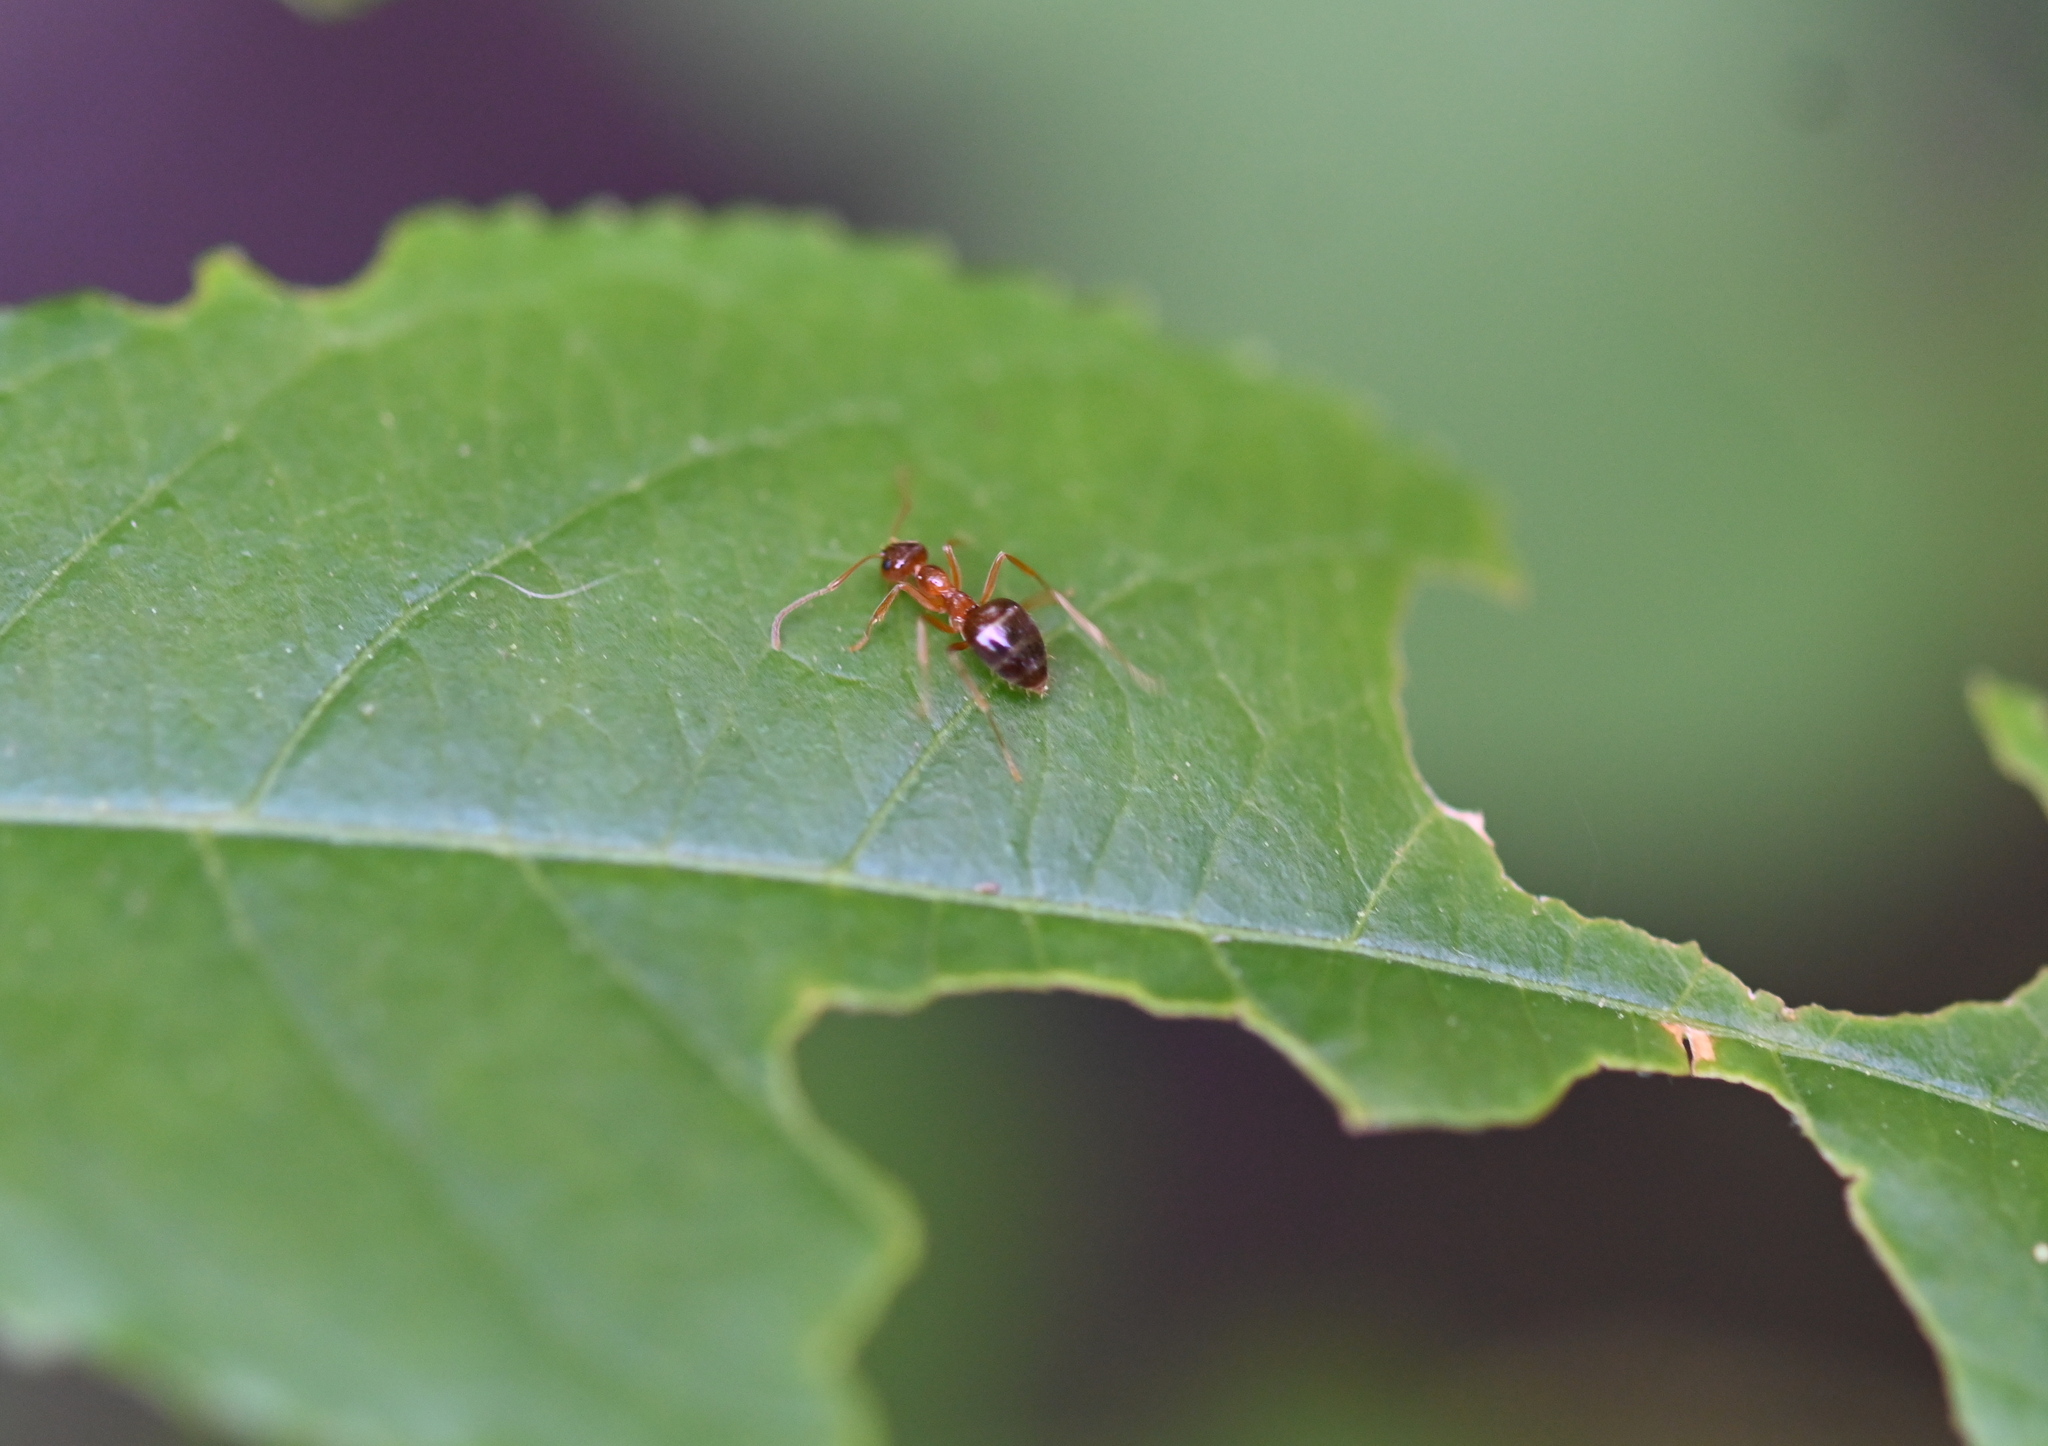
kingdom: Animalia
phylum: Arthropoda
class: Insecta
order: Hymenoptera
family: Formicidae
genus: Prenolepis
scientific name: Prenolepis imparis
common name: Small honey ant
